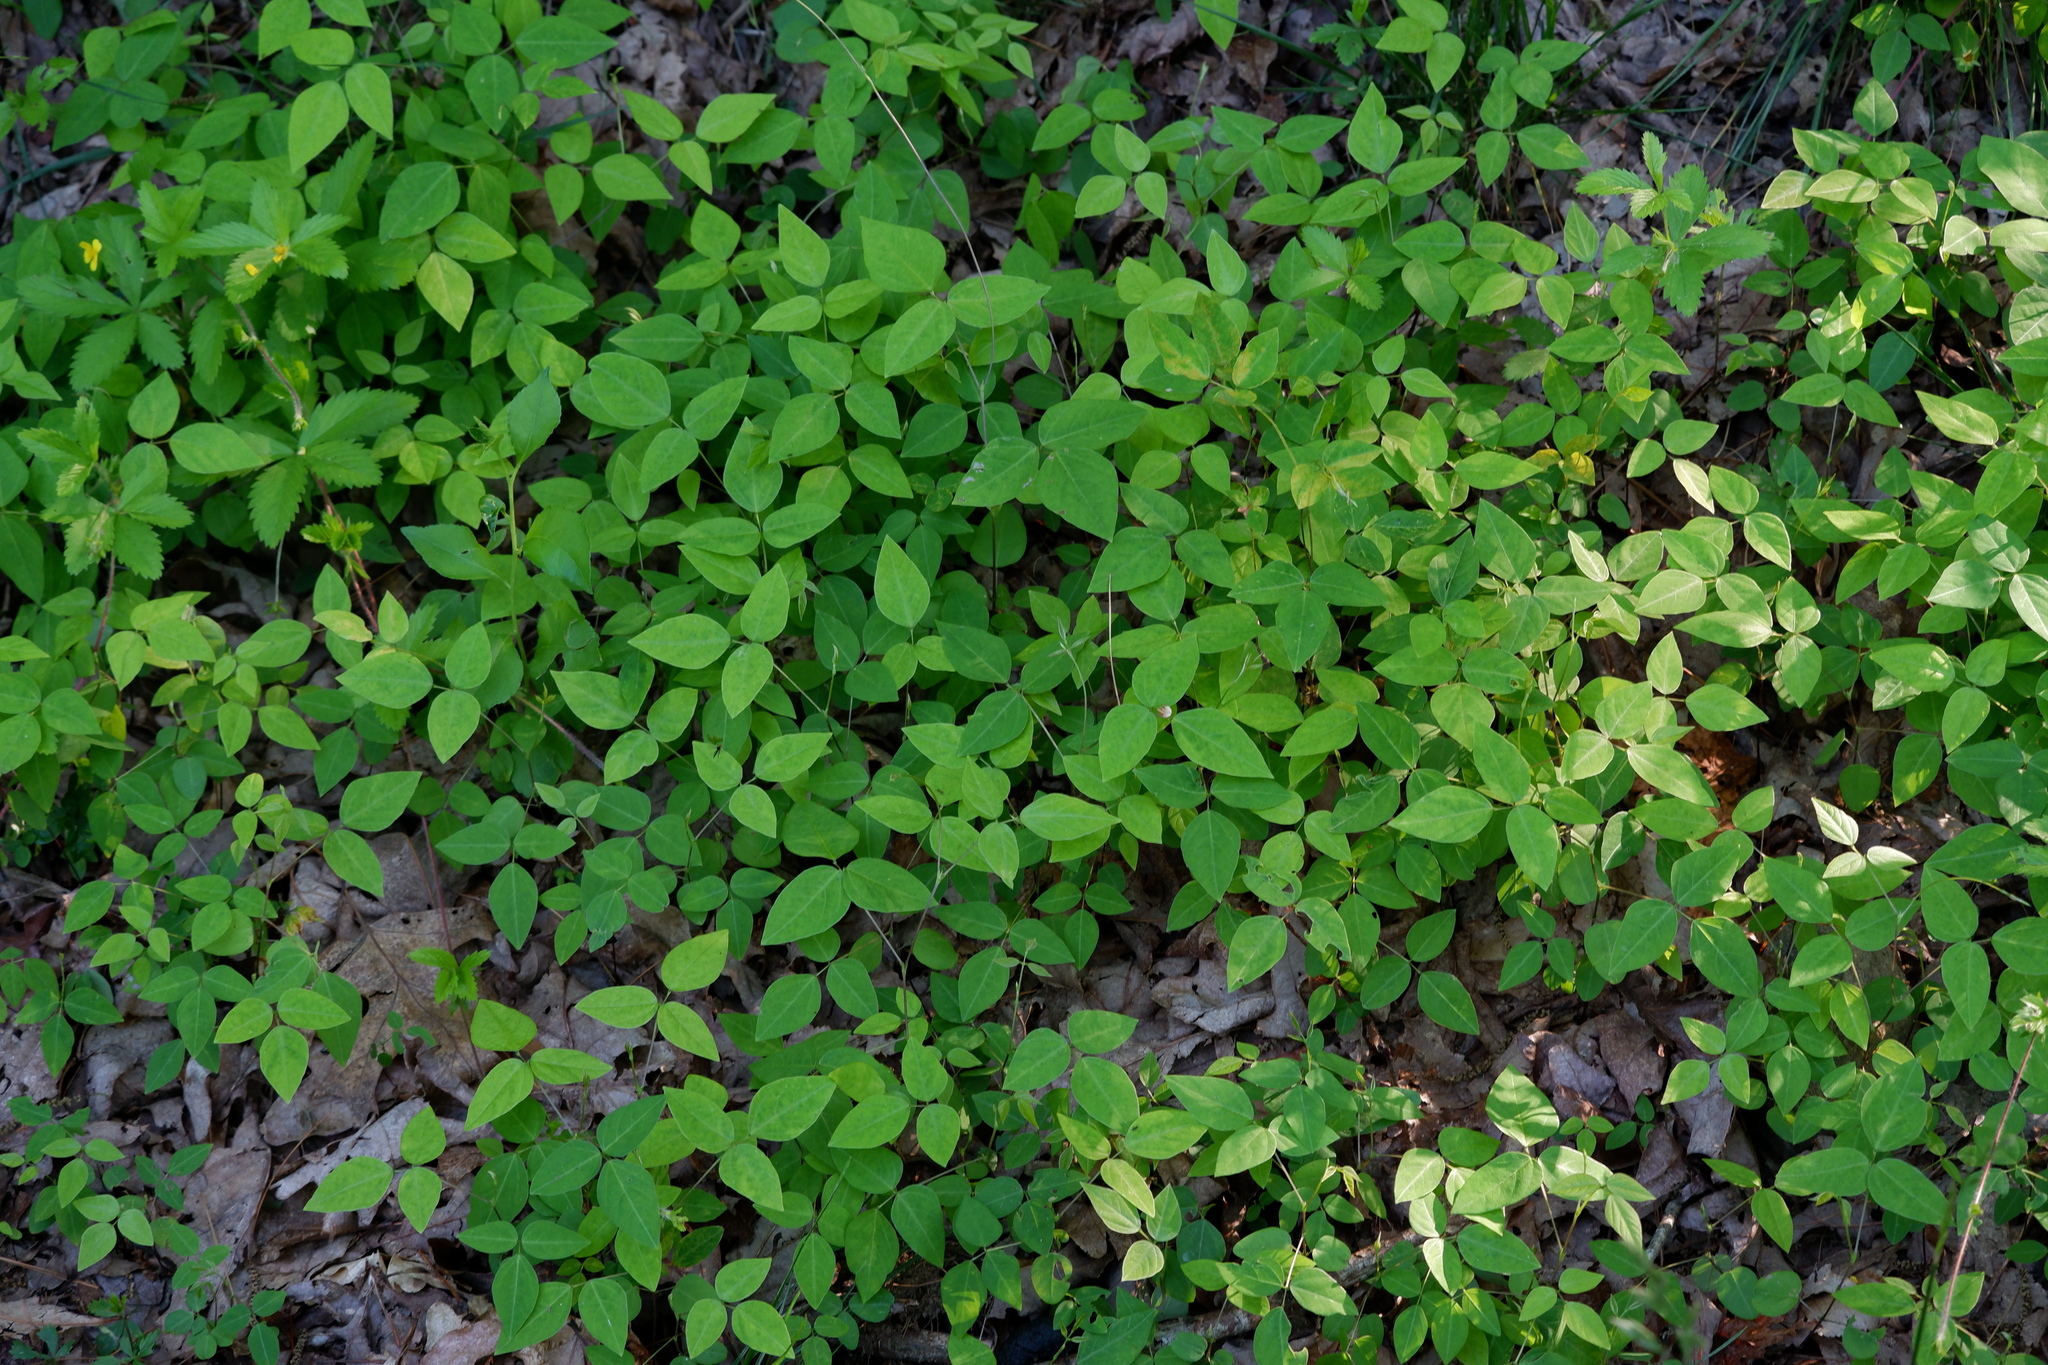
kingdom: Plantae
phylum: Tracheophyta
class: Magnoliopsida
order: Fabales
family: Fabaceae
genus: Amphicarpaea
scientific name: Amphicarpaea bracteata
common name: American hog peanut
